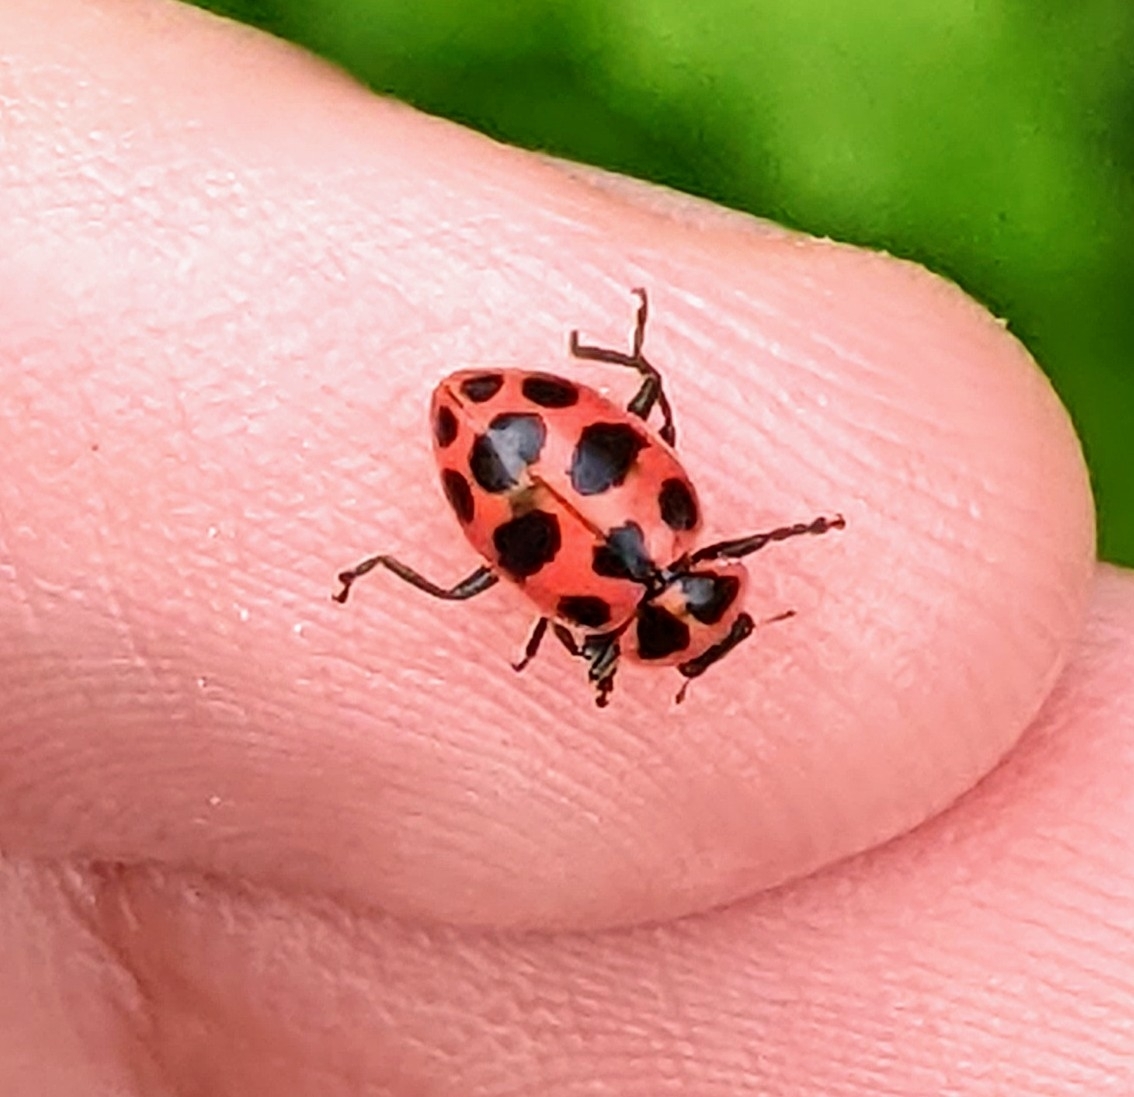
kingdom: Animalia
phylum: Arthropoda
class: Insecta
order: Coleoptera
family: Coccinellidae
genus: Coleomegilla
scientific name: Coleomegilla maculata
